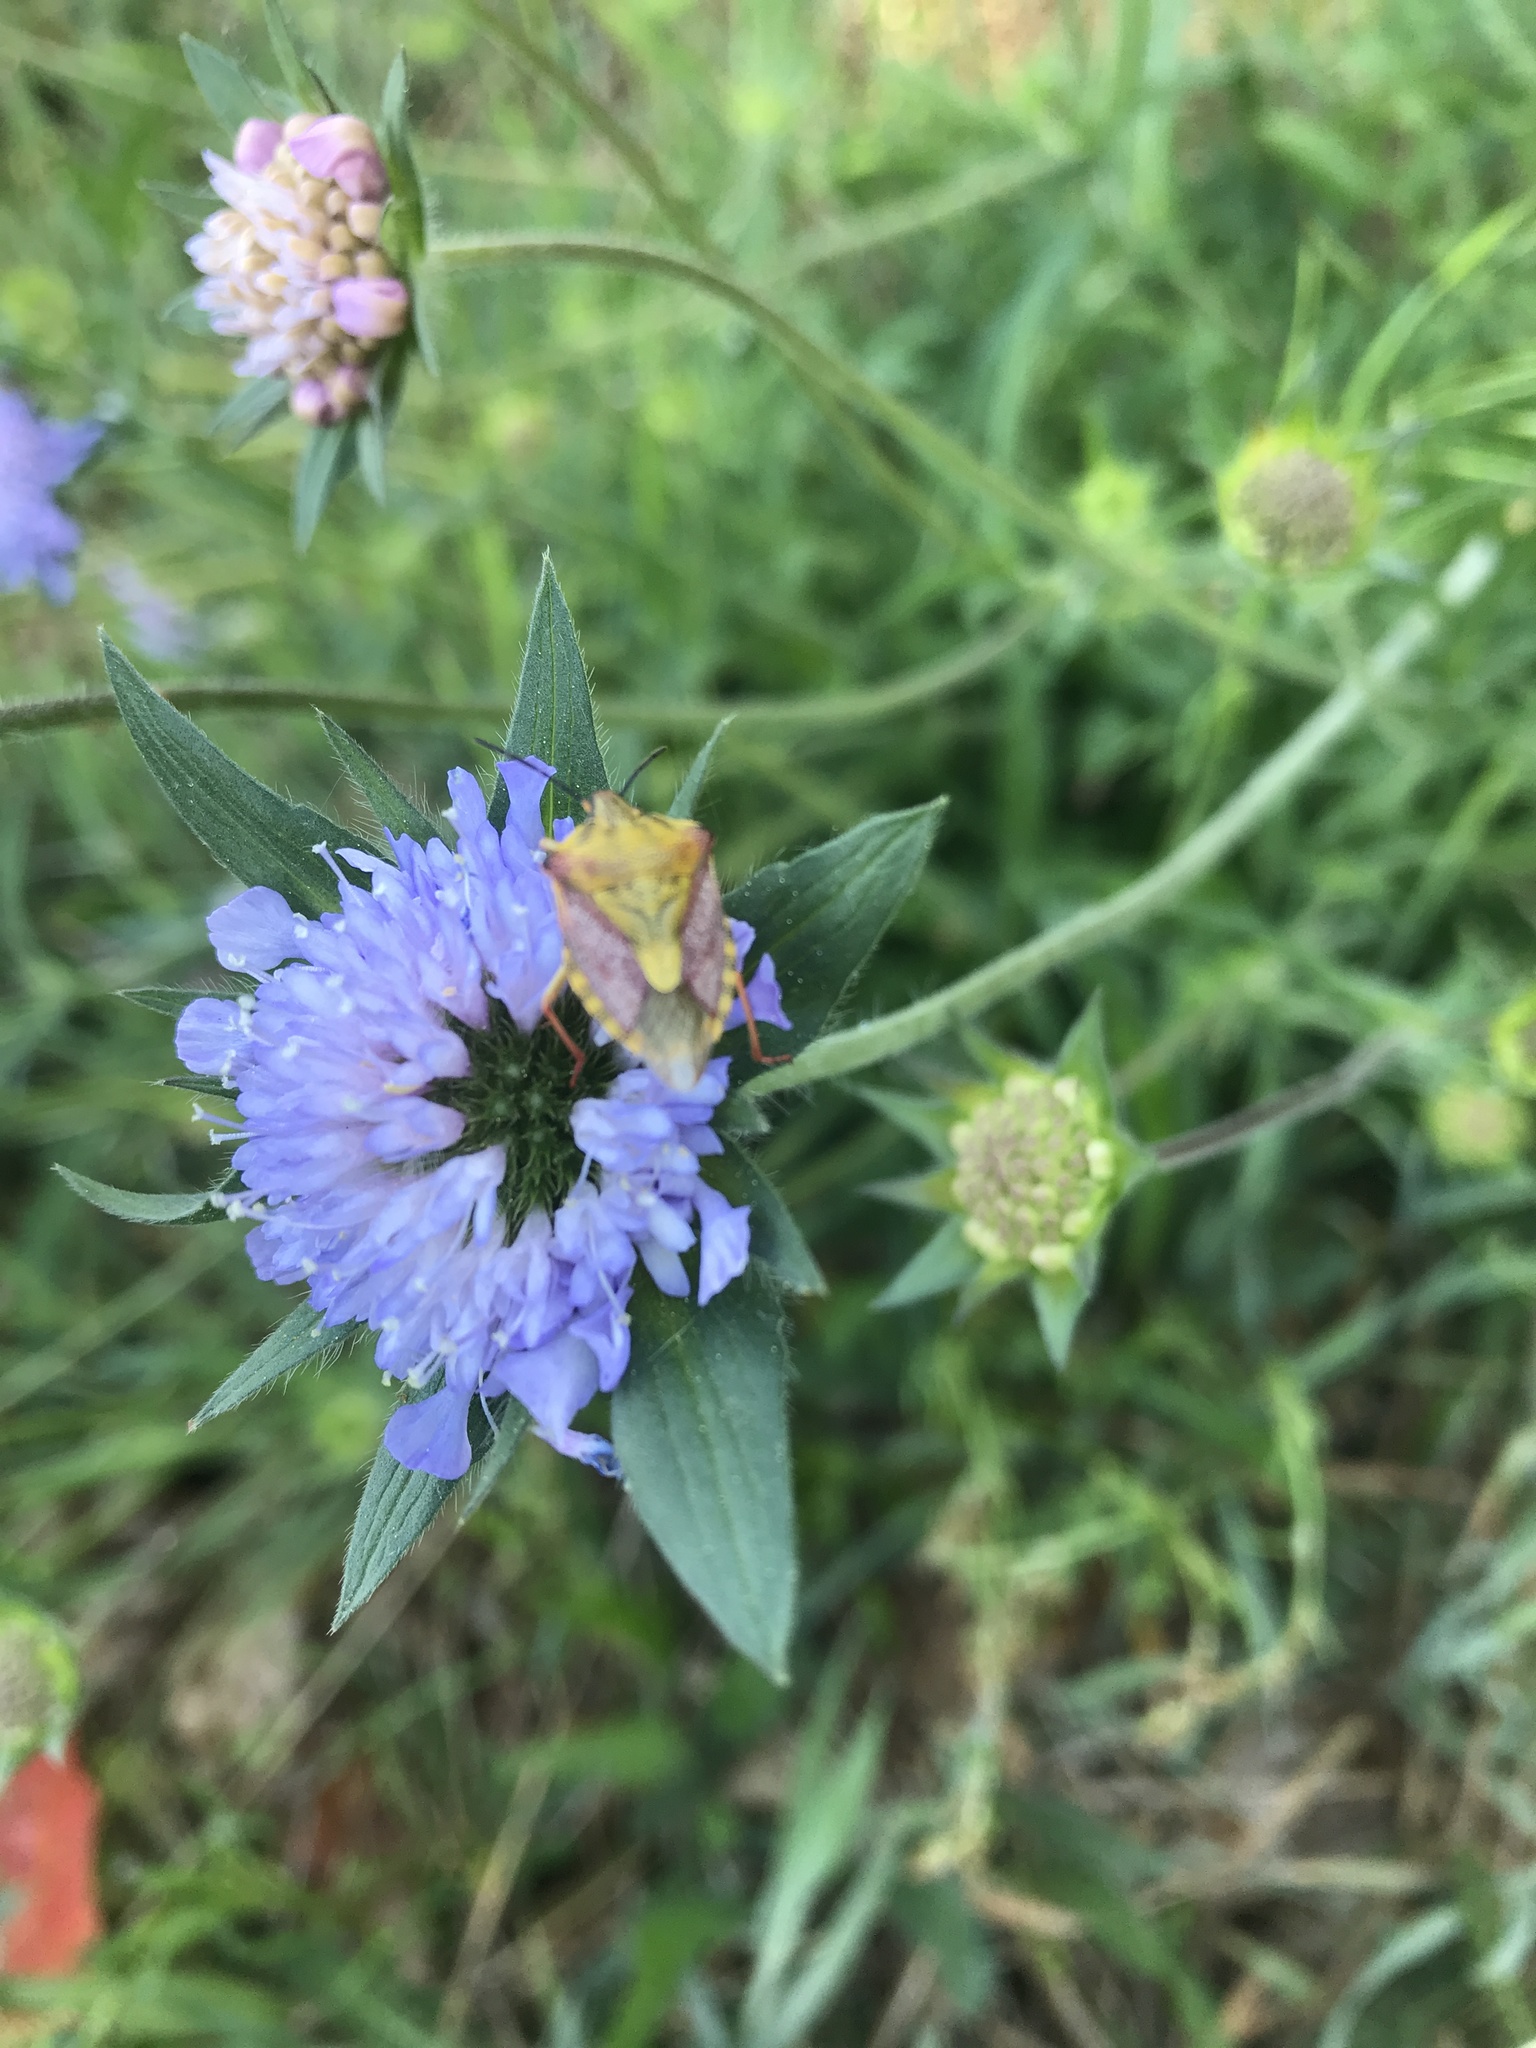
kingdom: Animalia
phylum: Arthropoda
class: Insecta
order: Hemiptera
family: Pentatomidae
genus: Carpocoris
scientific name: Carpocoris purpureipennis
